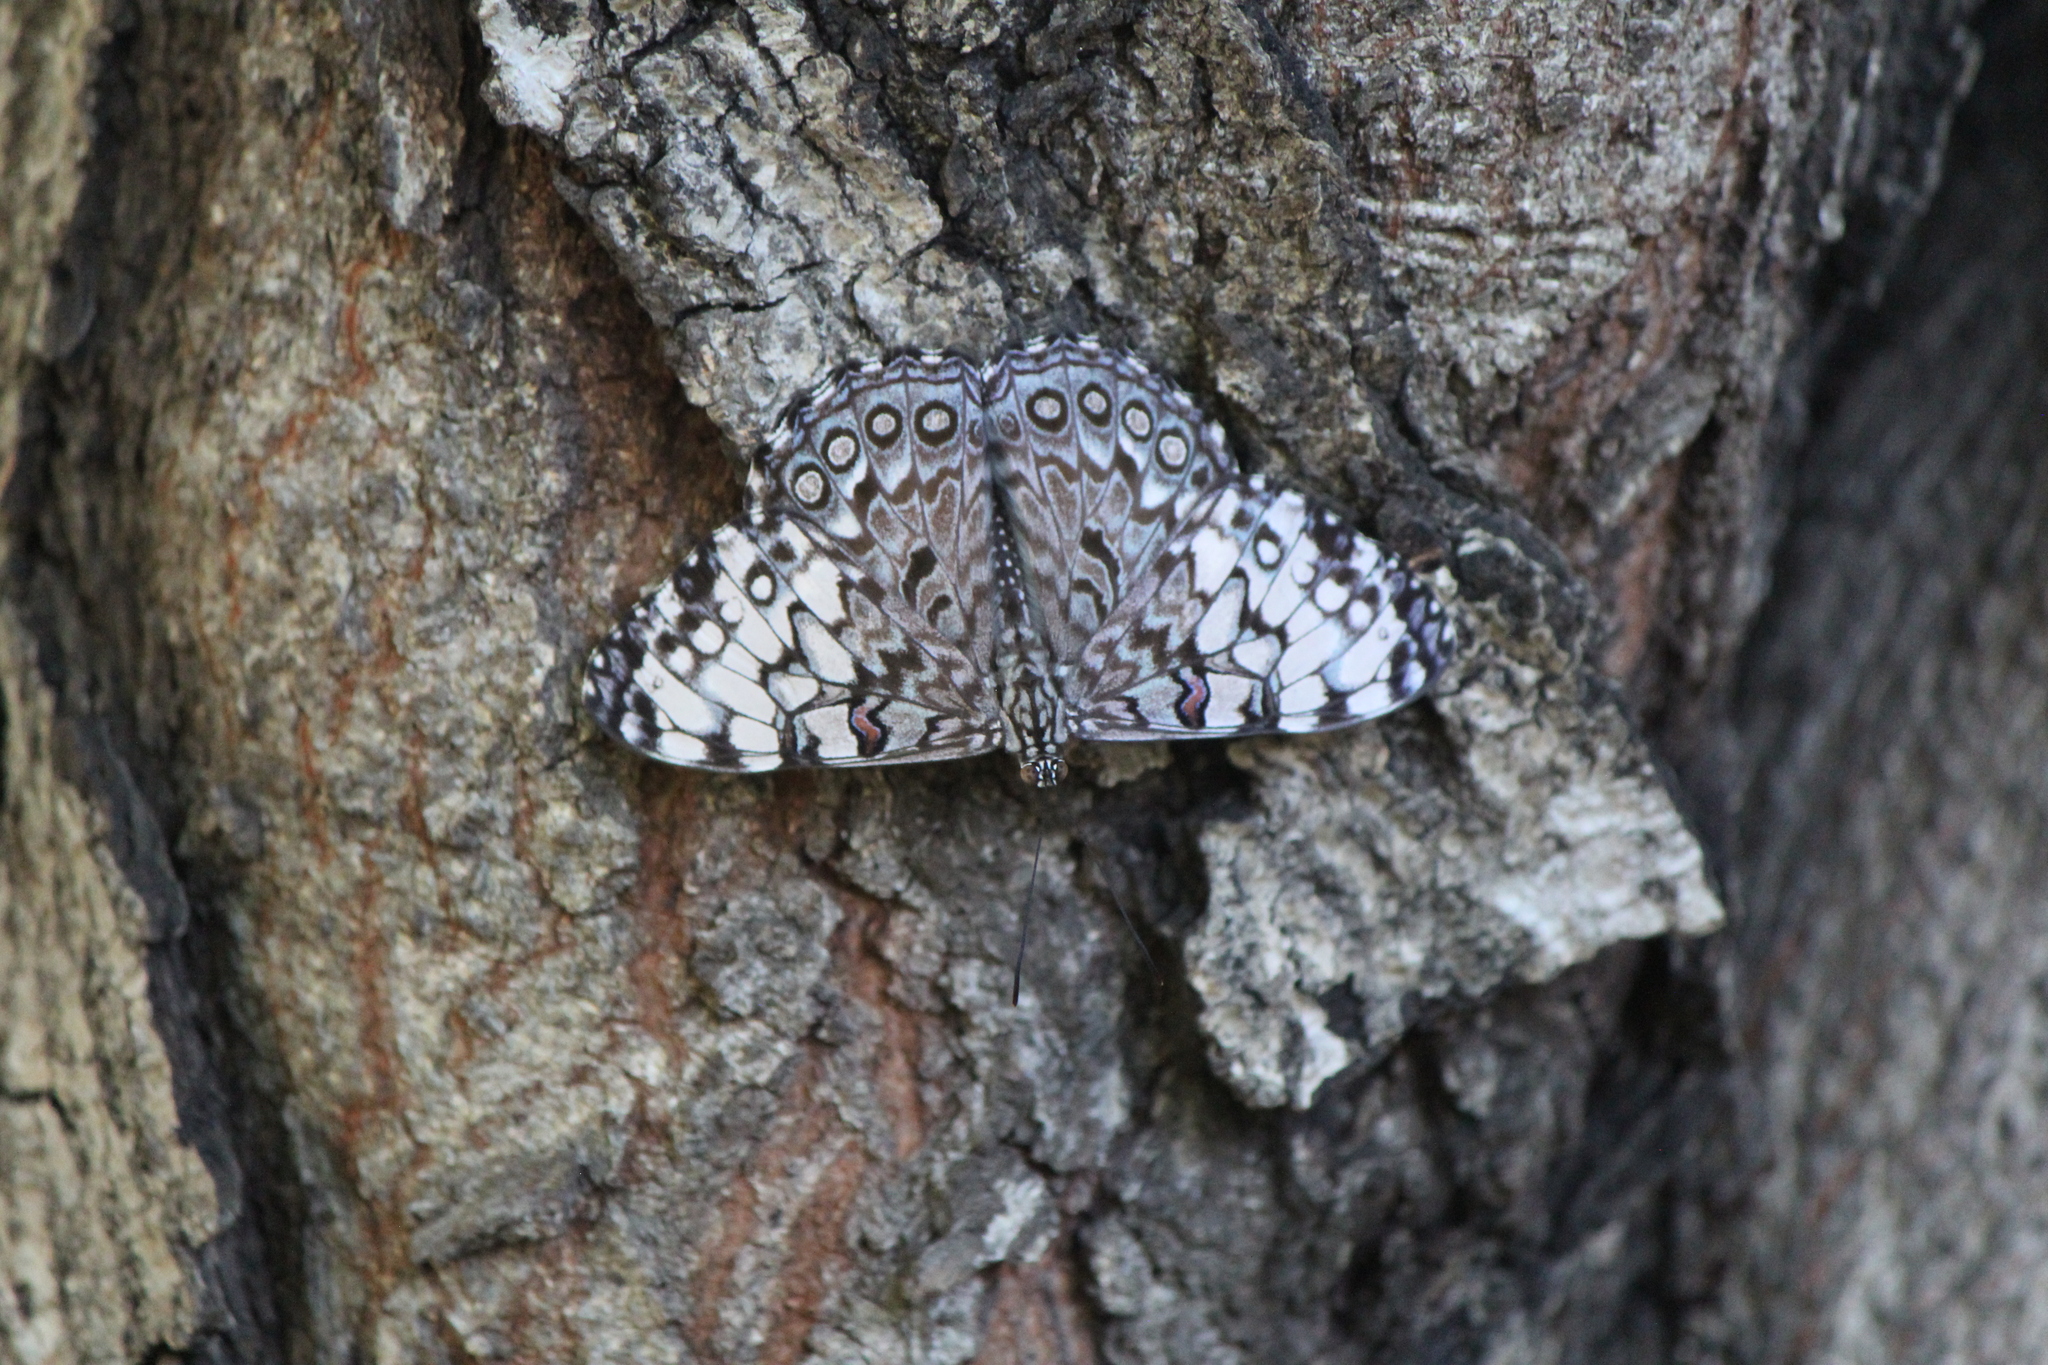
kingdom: Animalia
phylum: Arthropoda
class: Insecta
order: Lepidoptera
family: Nymphalidae
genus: Hamadryas
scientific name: Hamadryas guatemalena
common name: Guatemalan cracker
